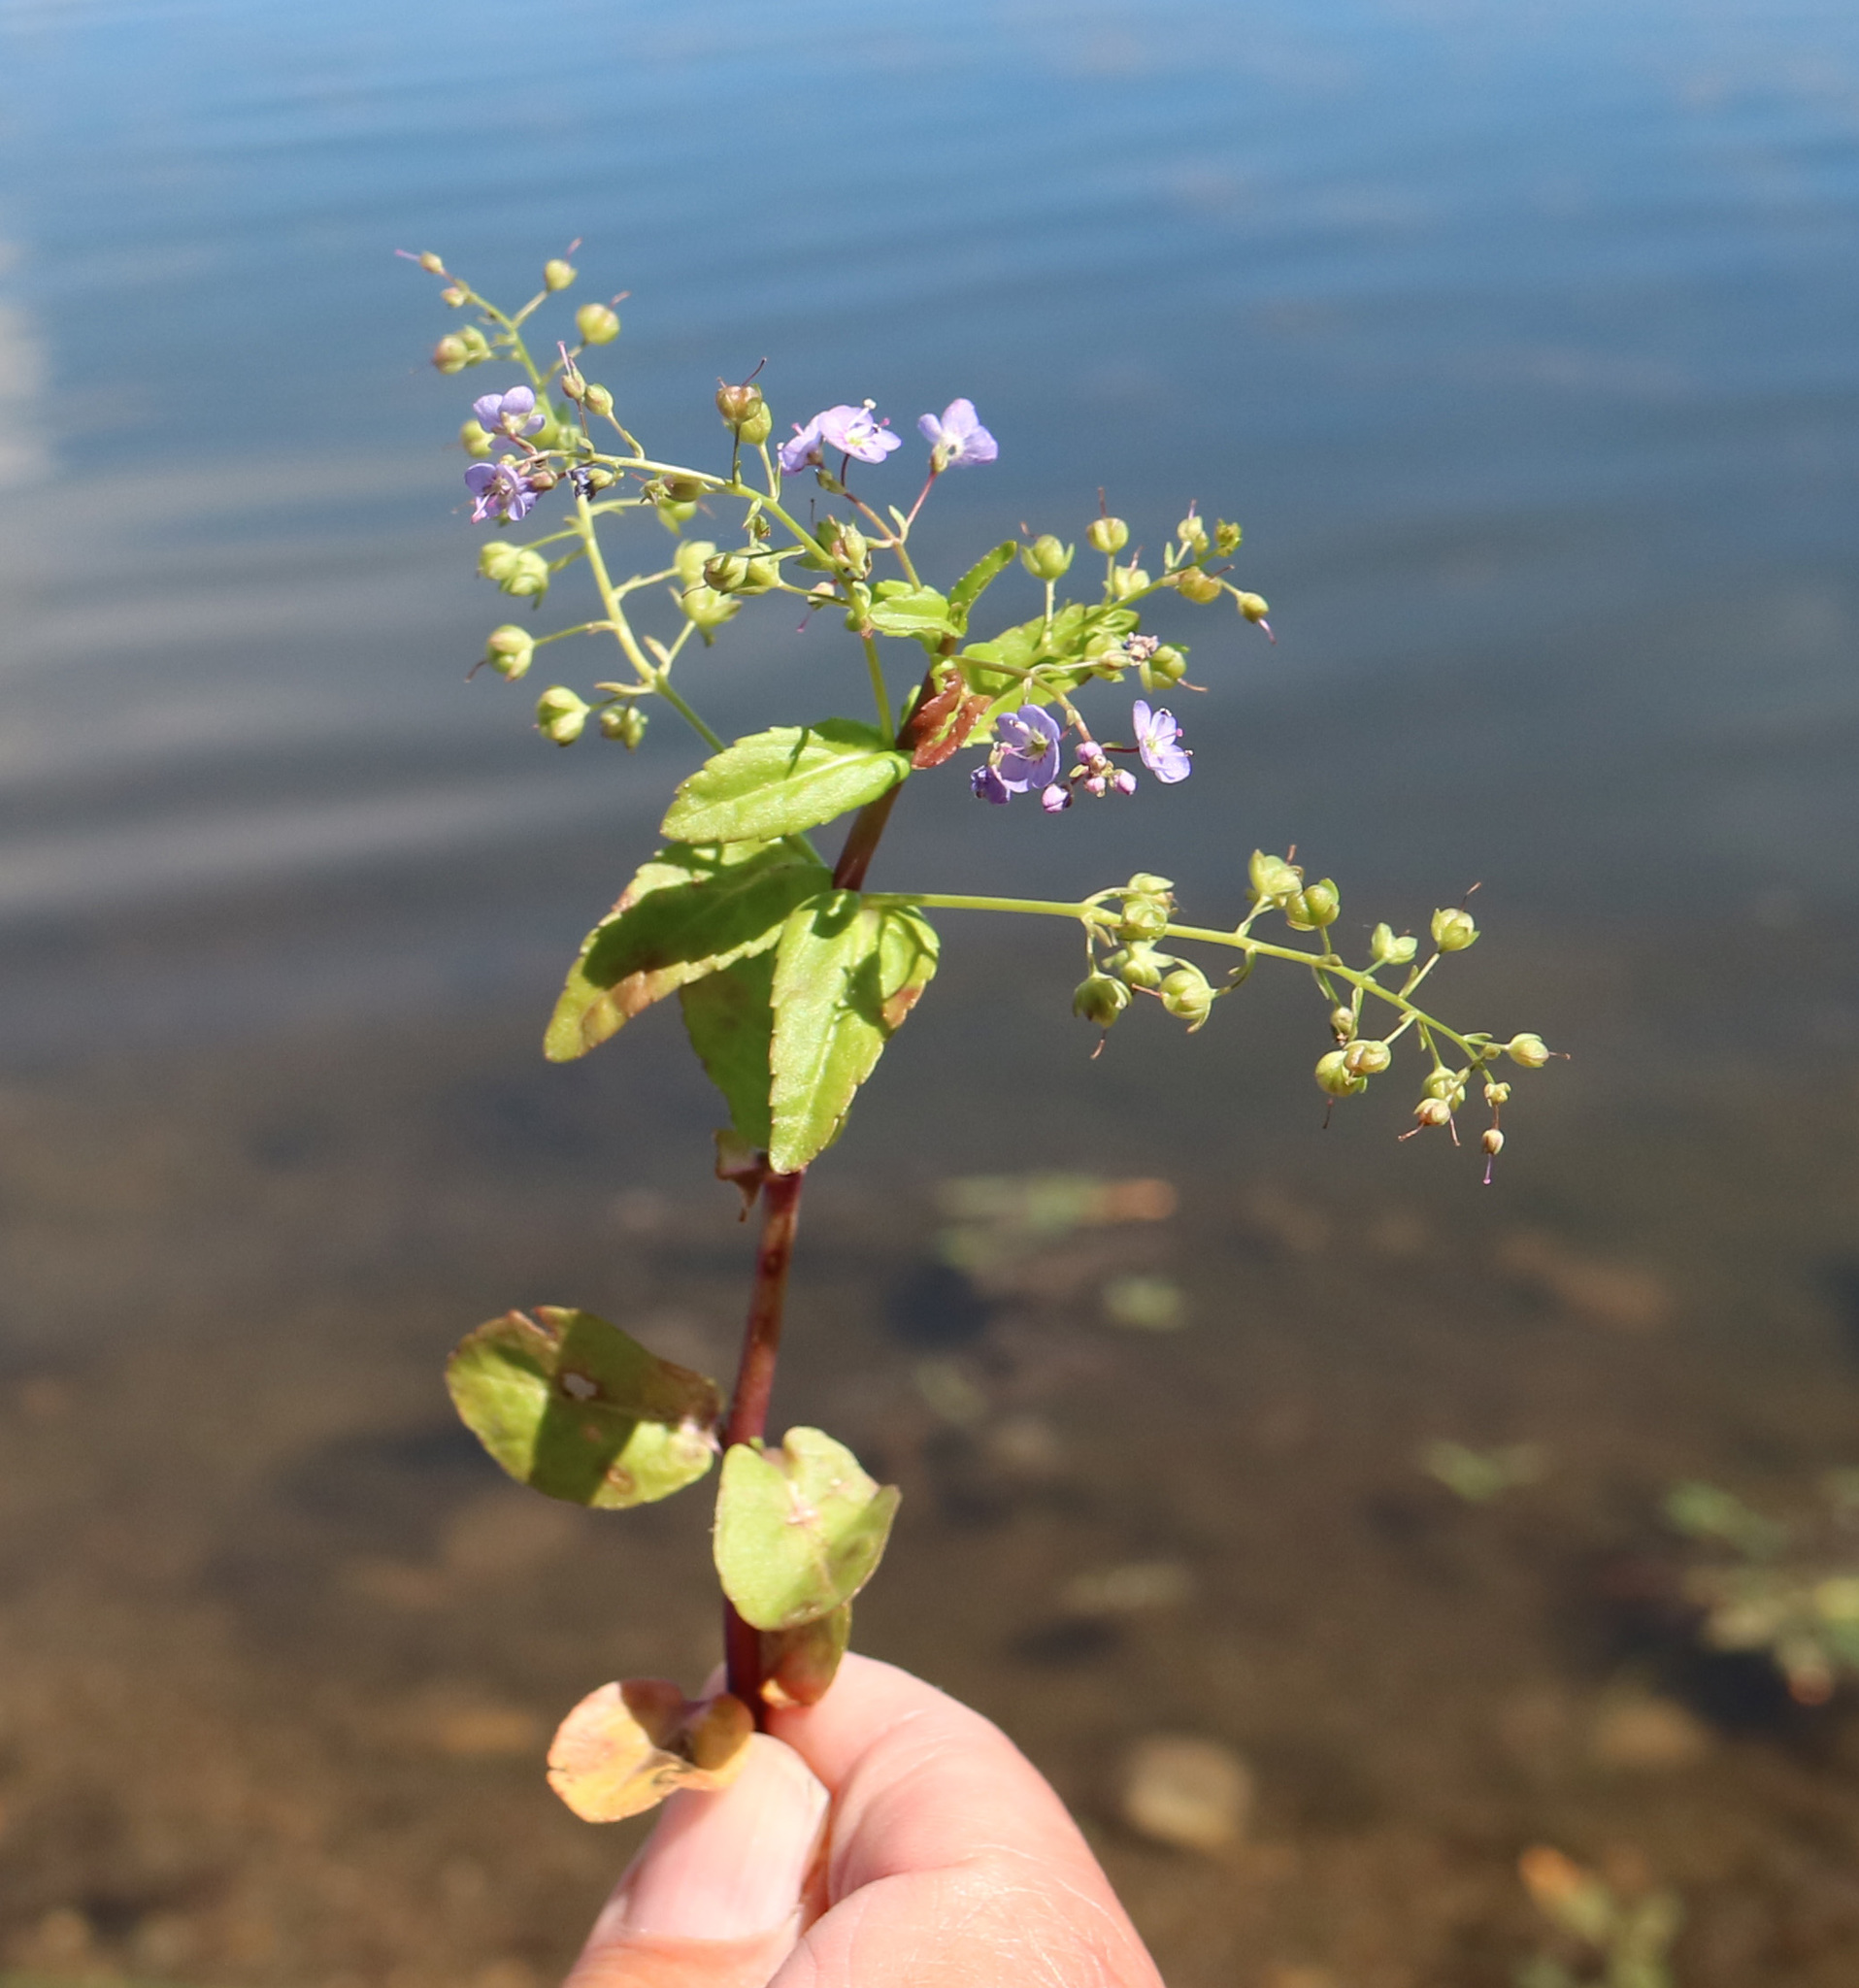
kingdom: Plantae
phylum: Tracheophyta
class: Magnoliopsida
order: Lamiales
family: Plantaginaceae
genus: Veronica
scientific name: Veronica americana
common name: American brooklime
